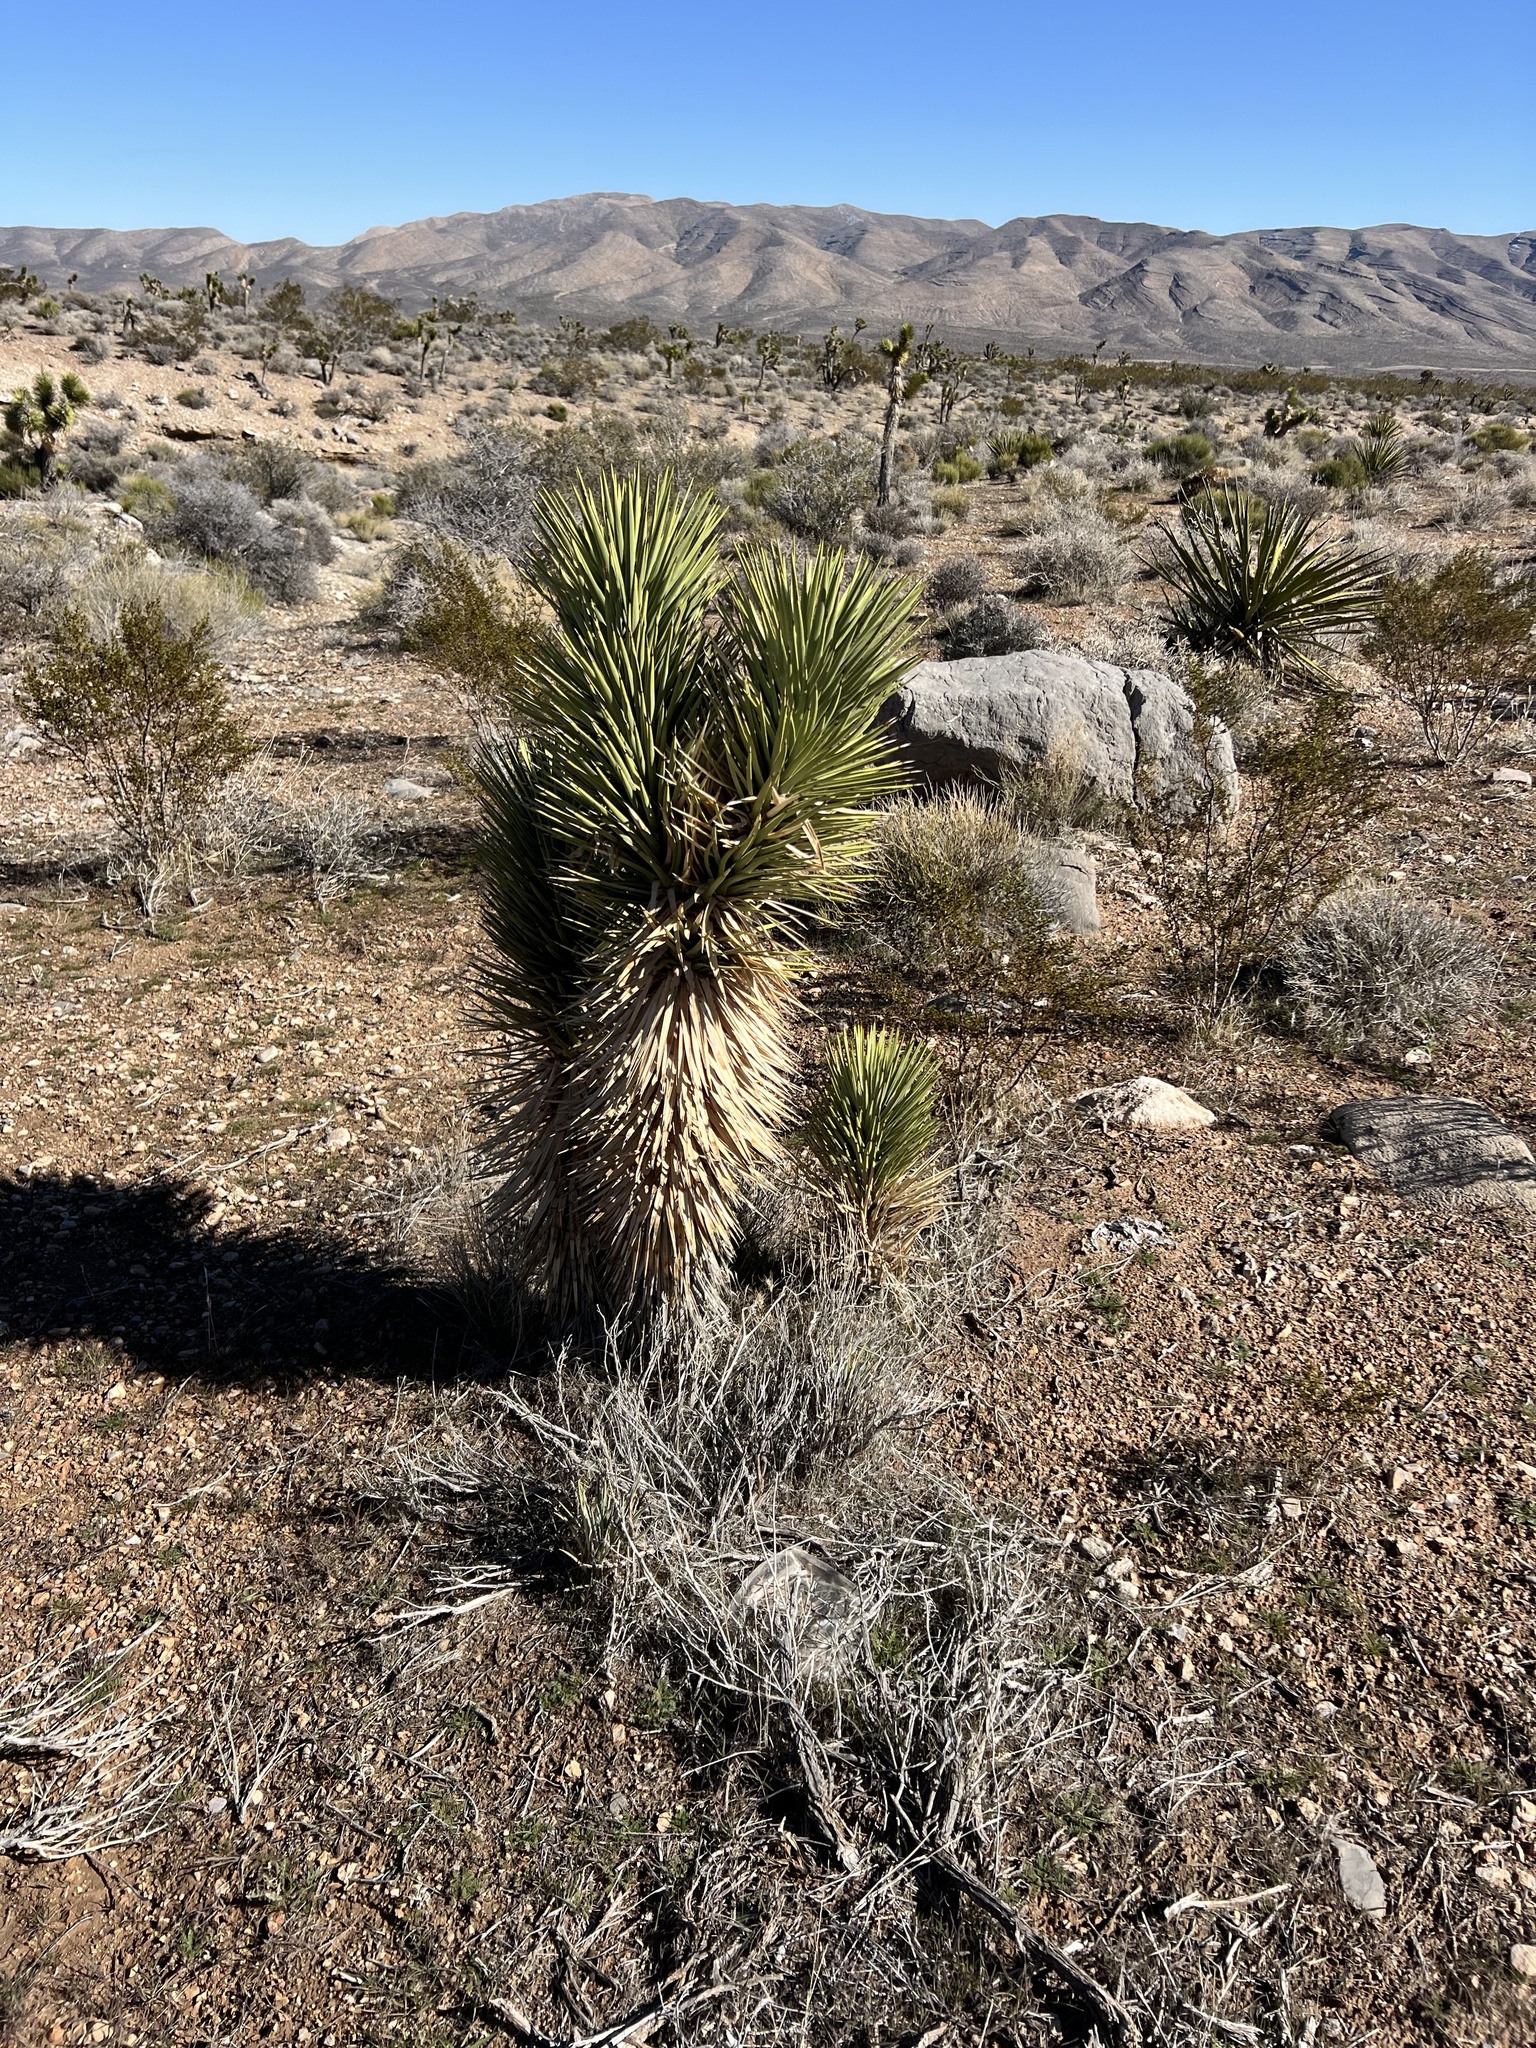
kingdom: Plantae
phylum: Tracheophyta
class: Liliopsida
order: Asparagales
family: Asparagaceae
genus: Yucca
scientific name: Yucca brevifolia
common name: Joshua tree
